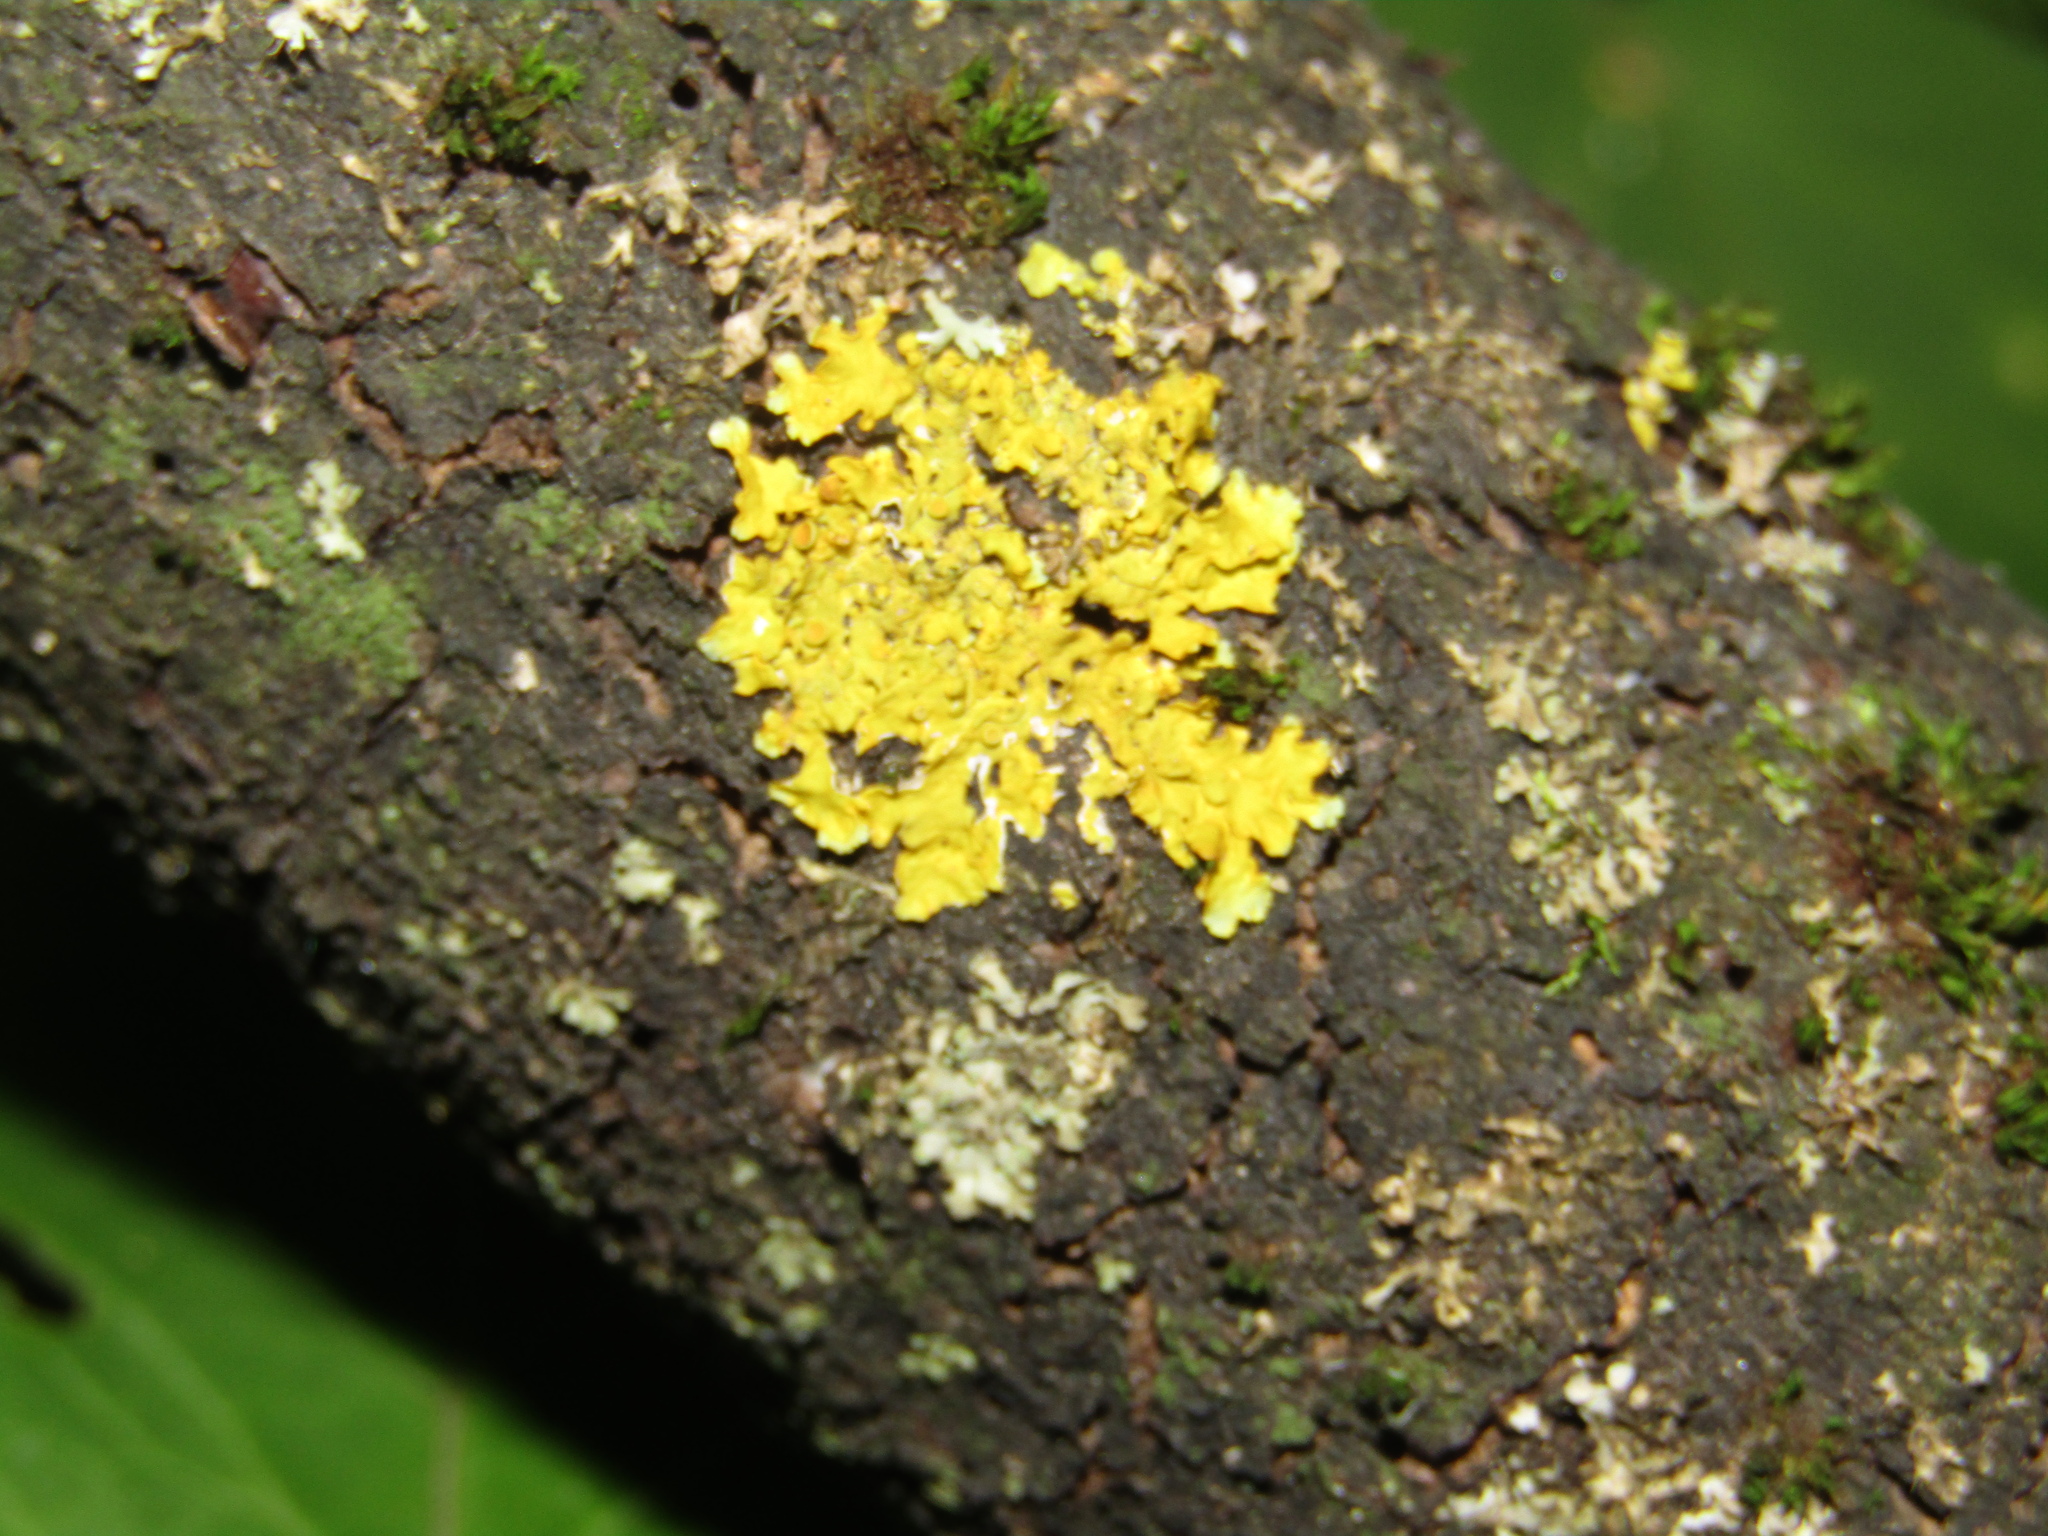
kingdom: Fungi
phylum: Ascomycota
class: Lecanoromycetes
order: Teloschistales
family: Teloschistaceae
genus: Xanthoria
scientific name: Xanthoria parietina
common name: Common orange lichen
